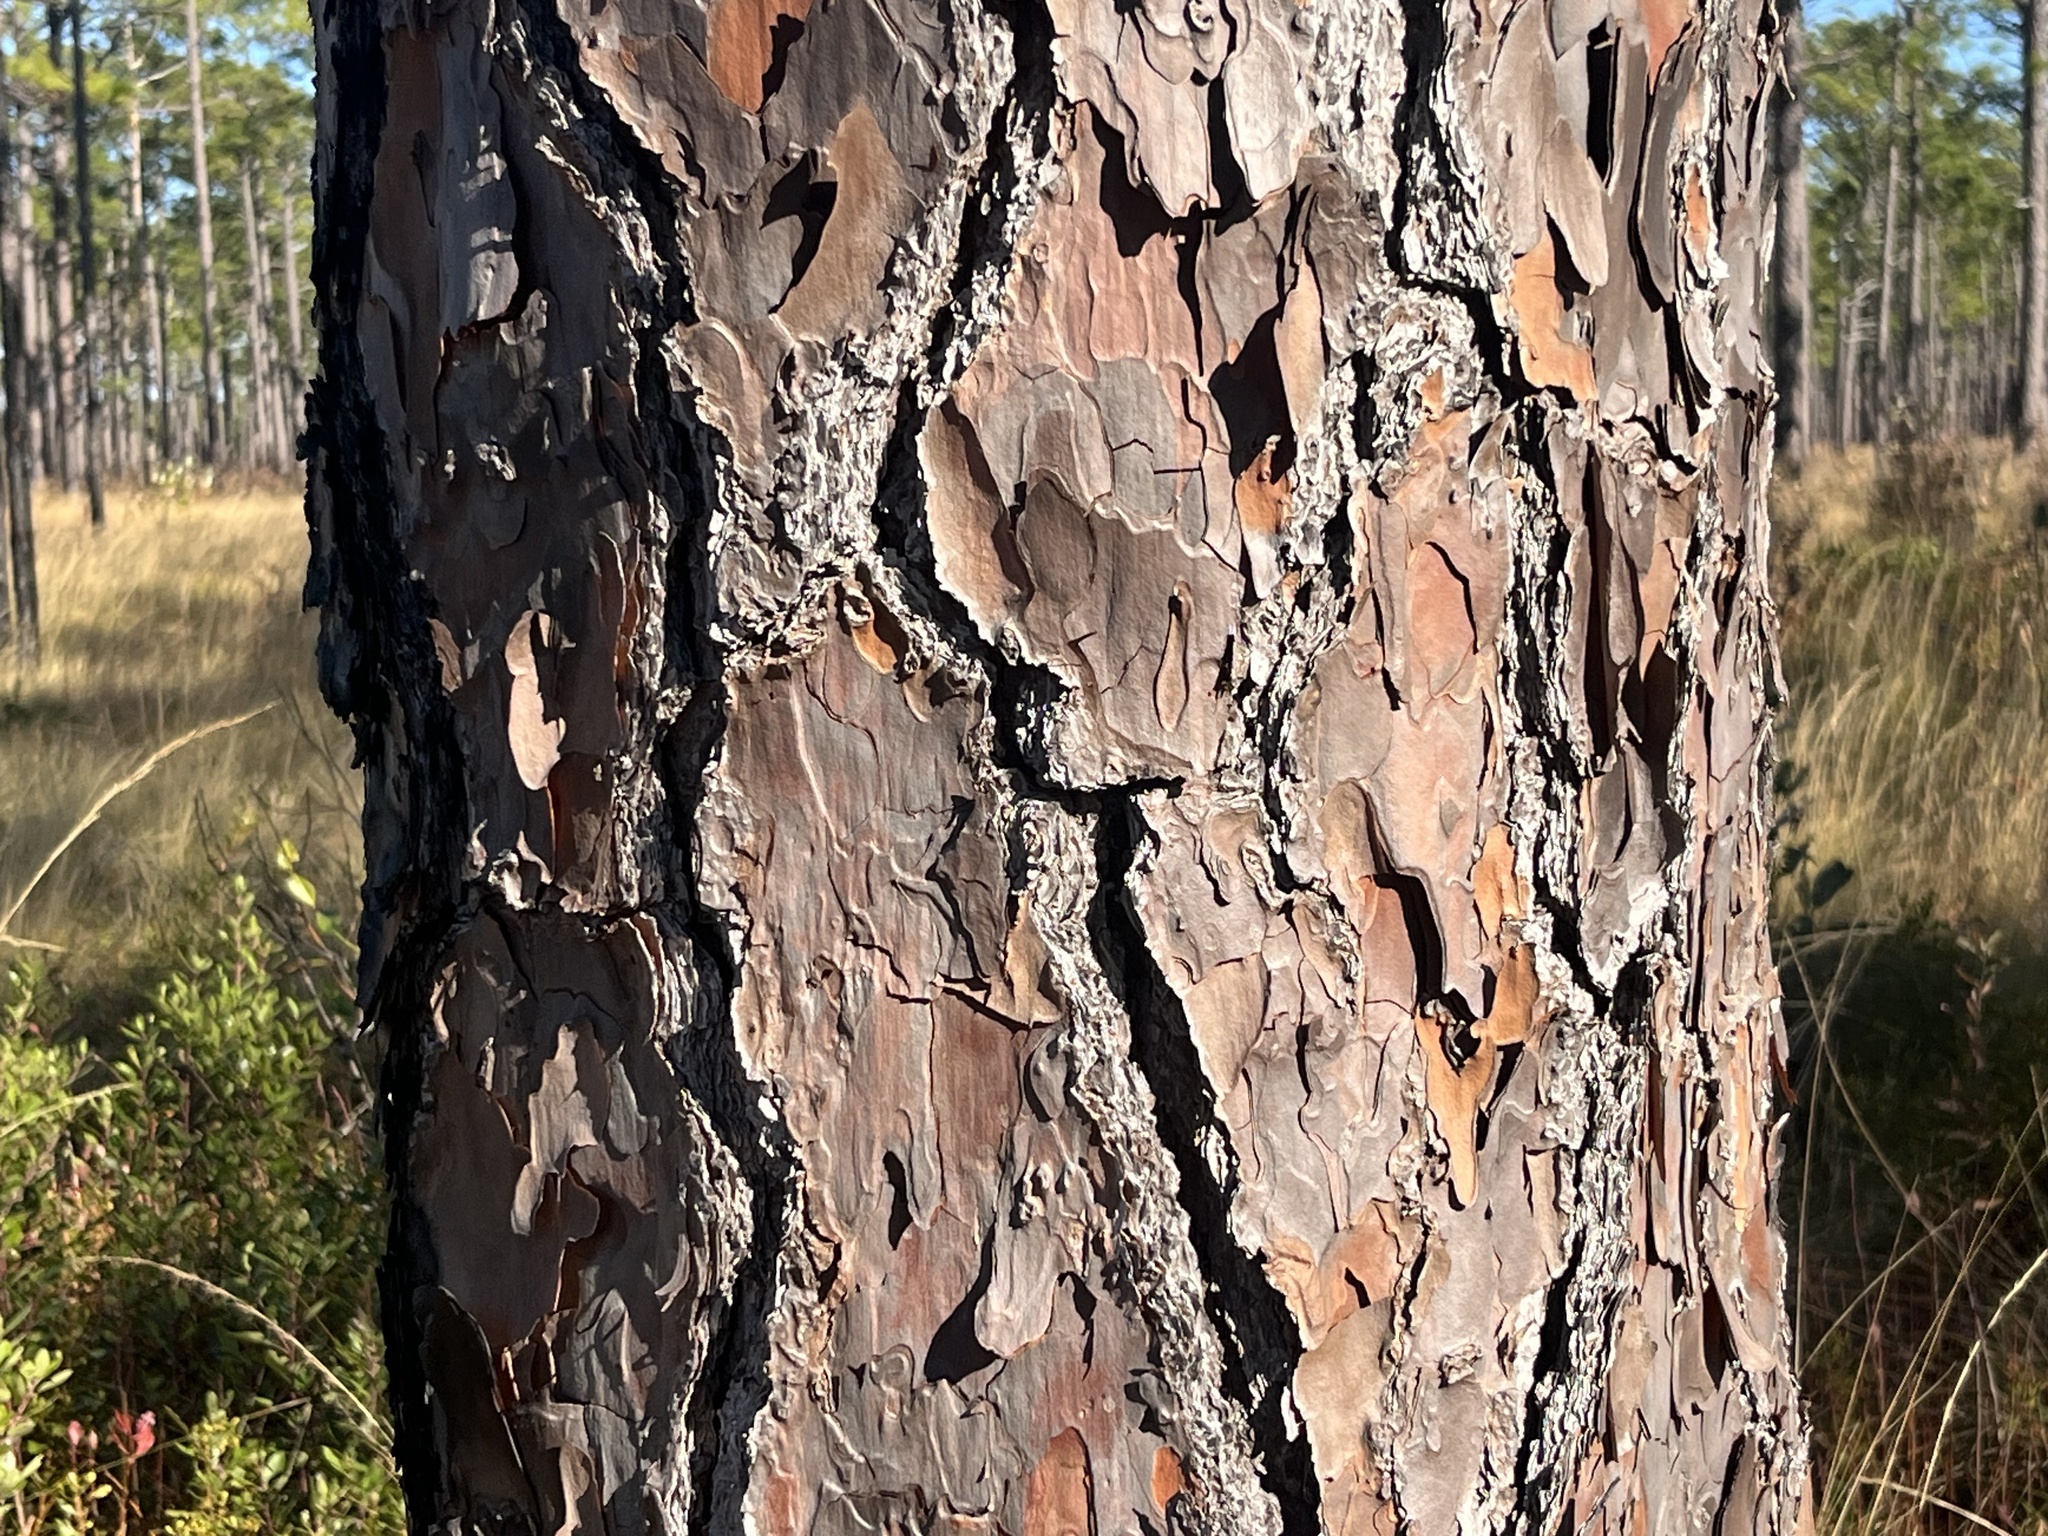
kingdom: Plantae
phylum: Tracheophyta
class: Pinopsida
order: Pinales
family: Pinaceae
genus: Pinus
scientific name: Pinus palustris
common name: Longleaf pine
